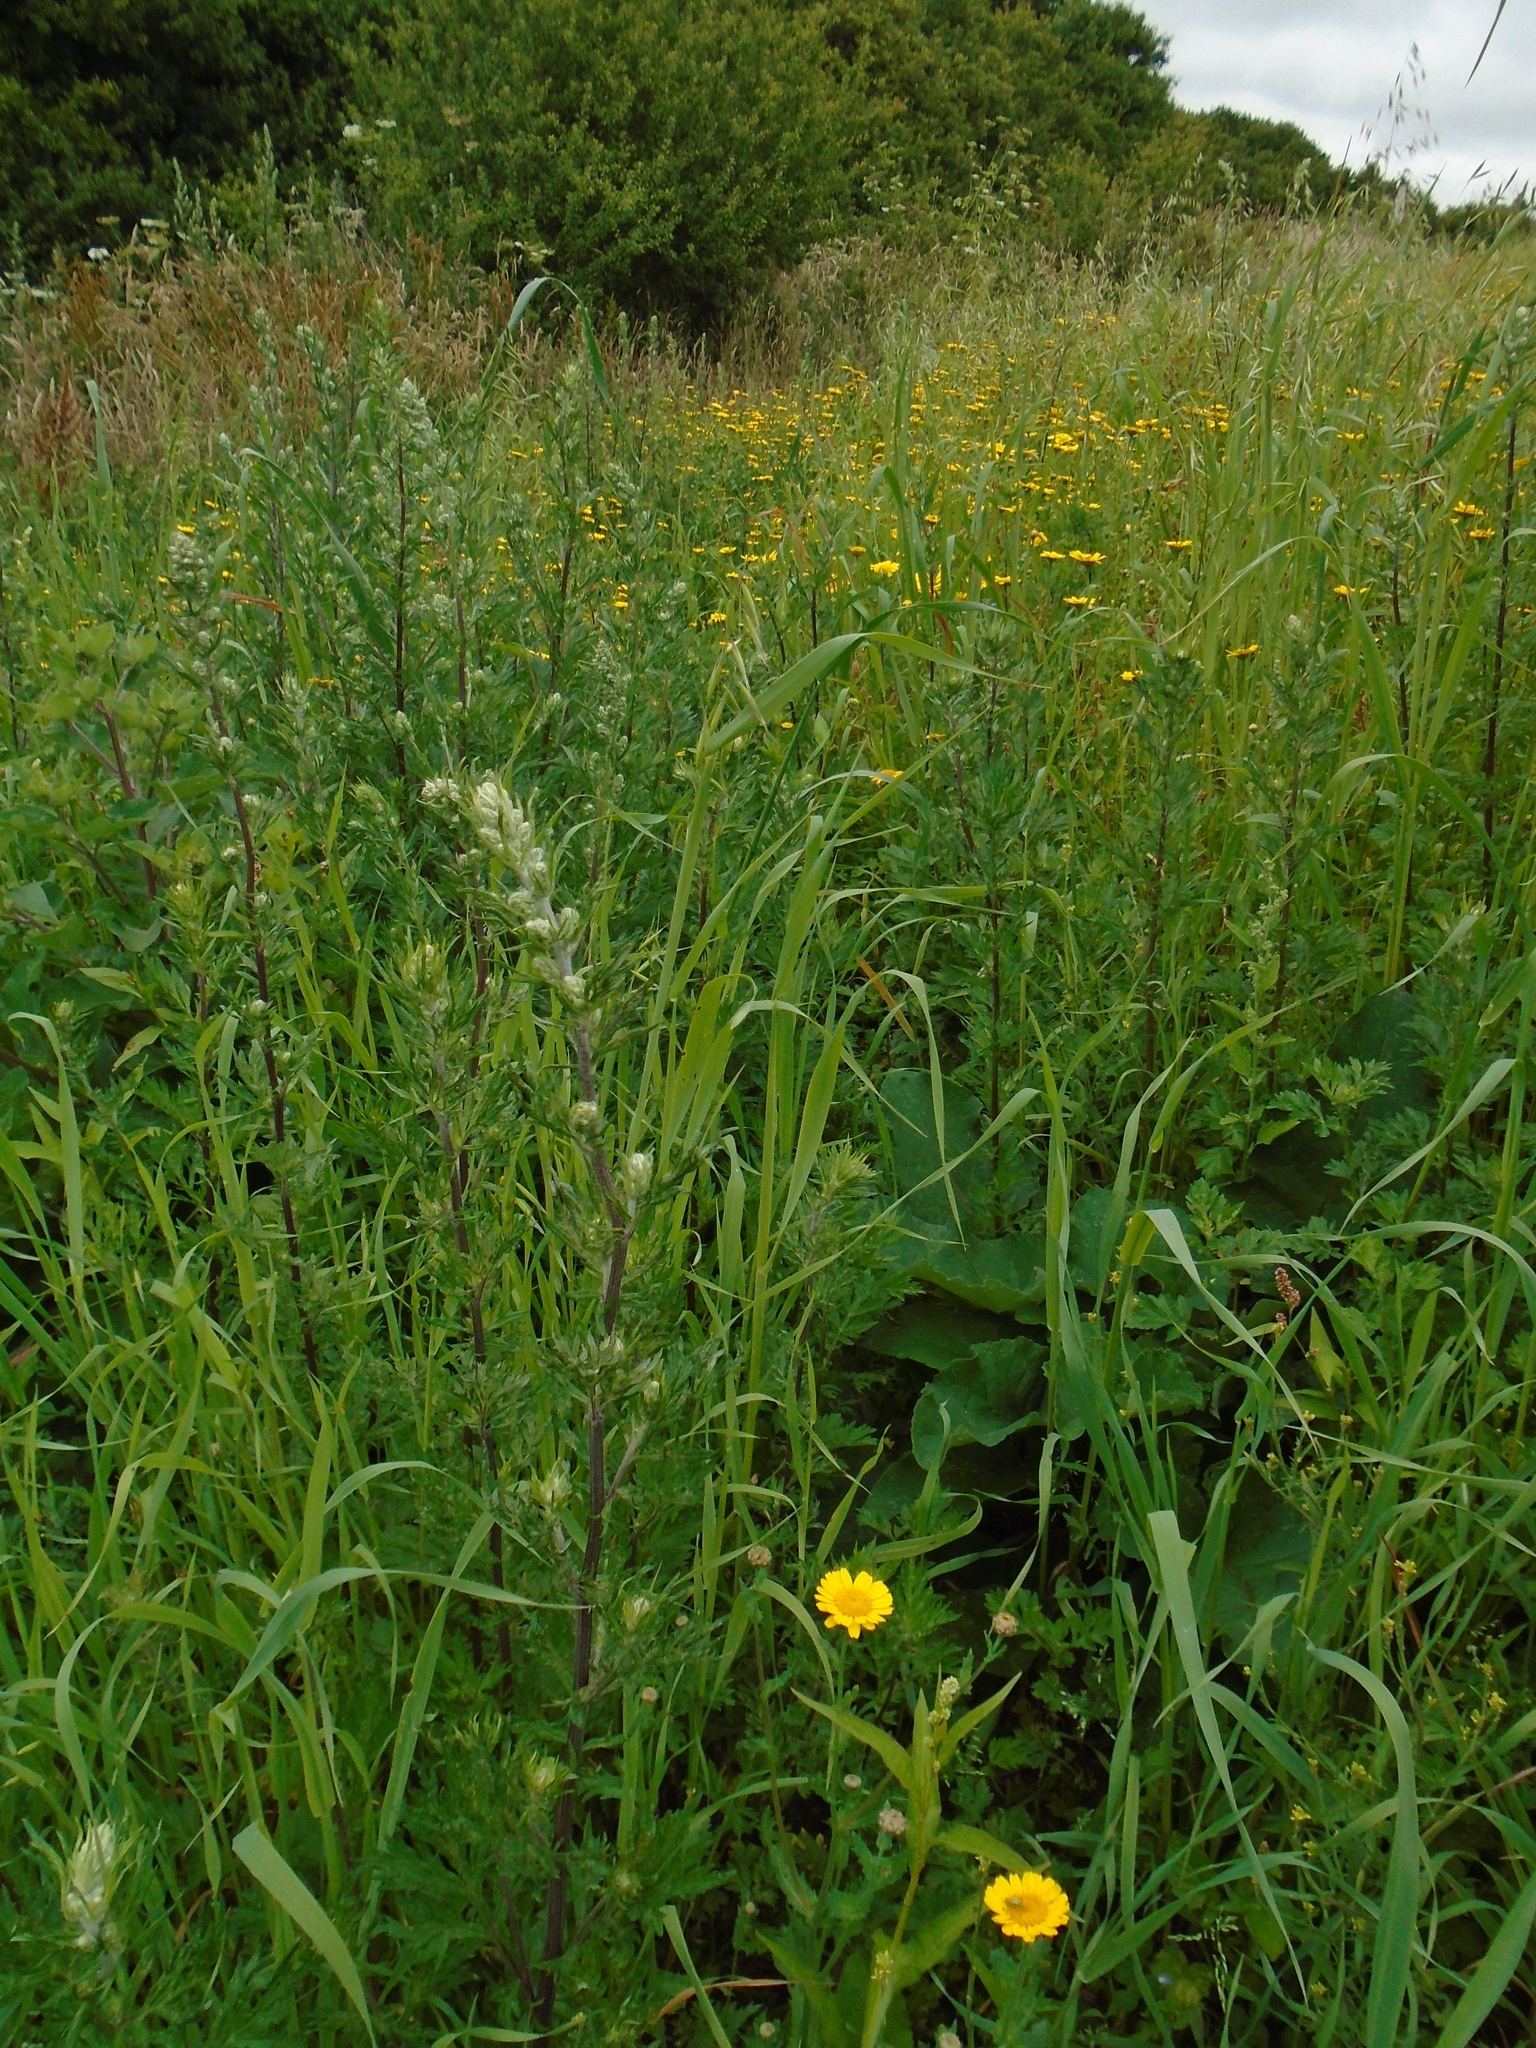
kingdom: Plantae
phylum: Tracheophyta
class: Magnoliopsida
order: Asterales
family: Asteraceae
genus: Glebionis
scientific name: Glebionis segetum
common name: Corndaisy
